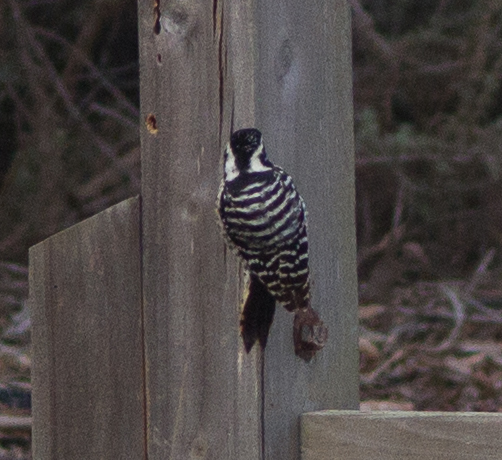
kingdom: Animalia
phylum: Chordata
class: Aves
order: Piciformes
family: Picidae
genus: Dryobates
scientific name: Dryobates nuttallii
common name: Nuttall's woodpecker
